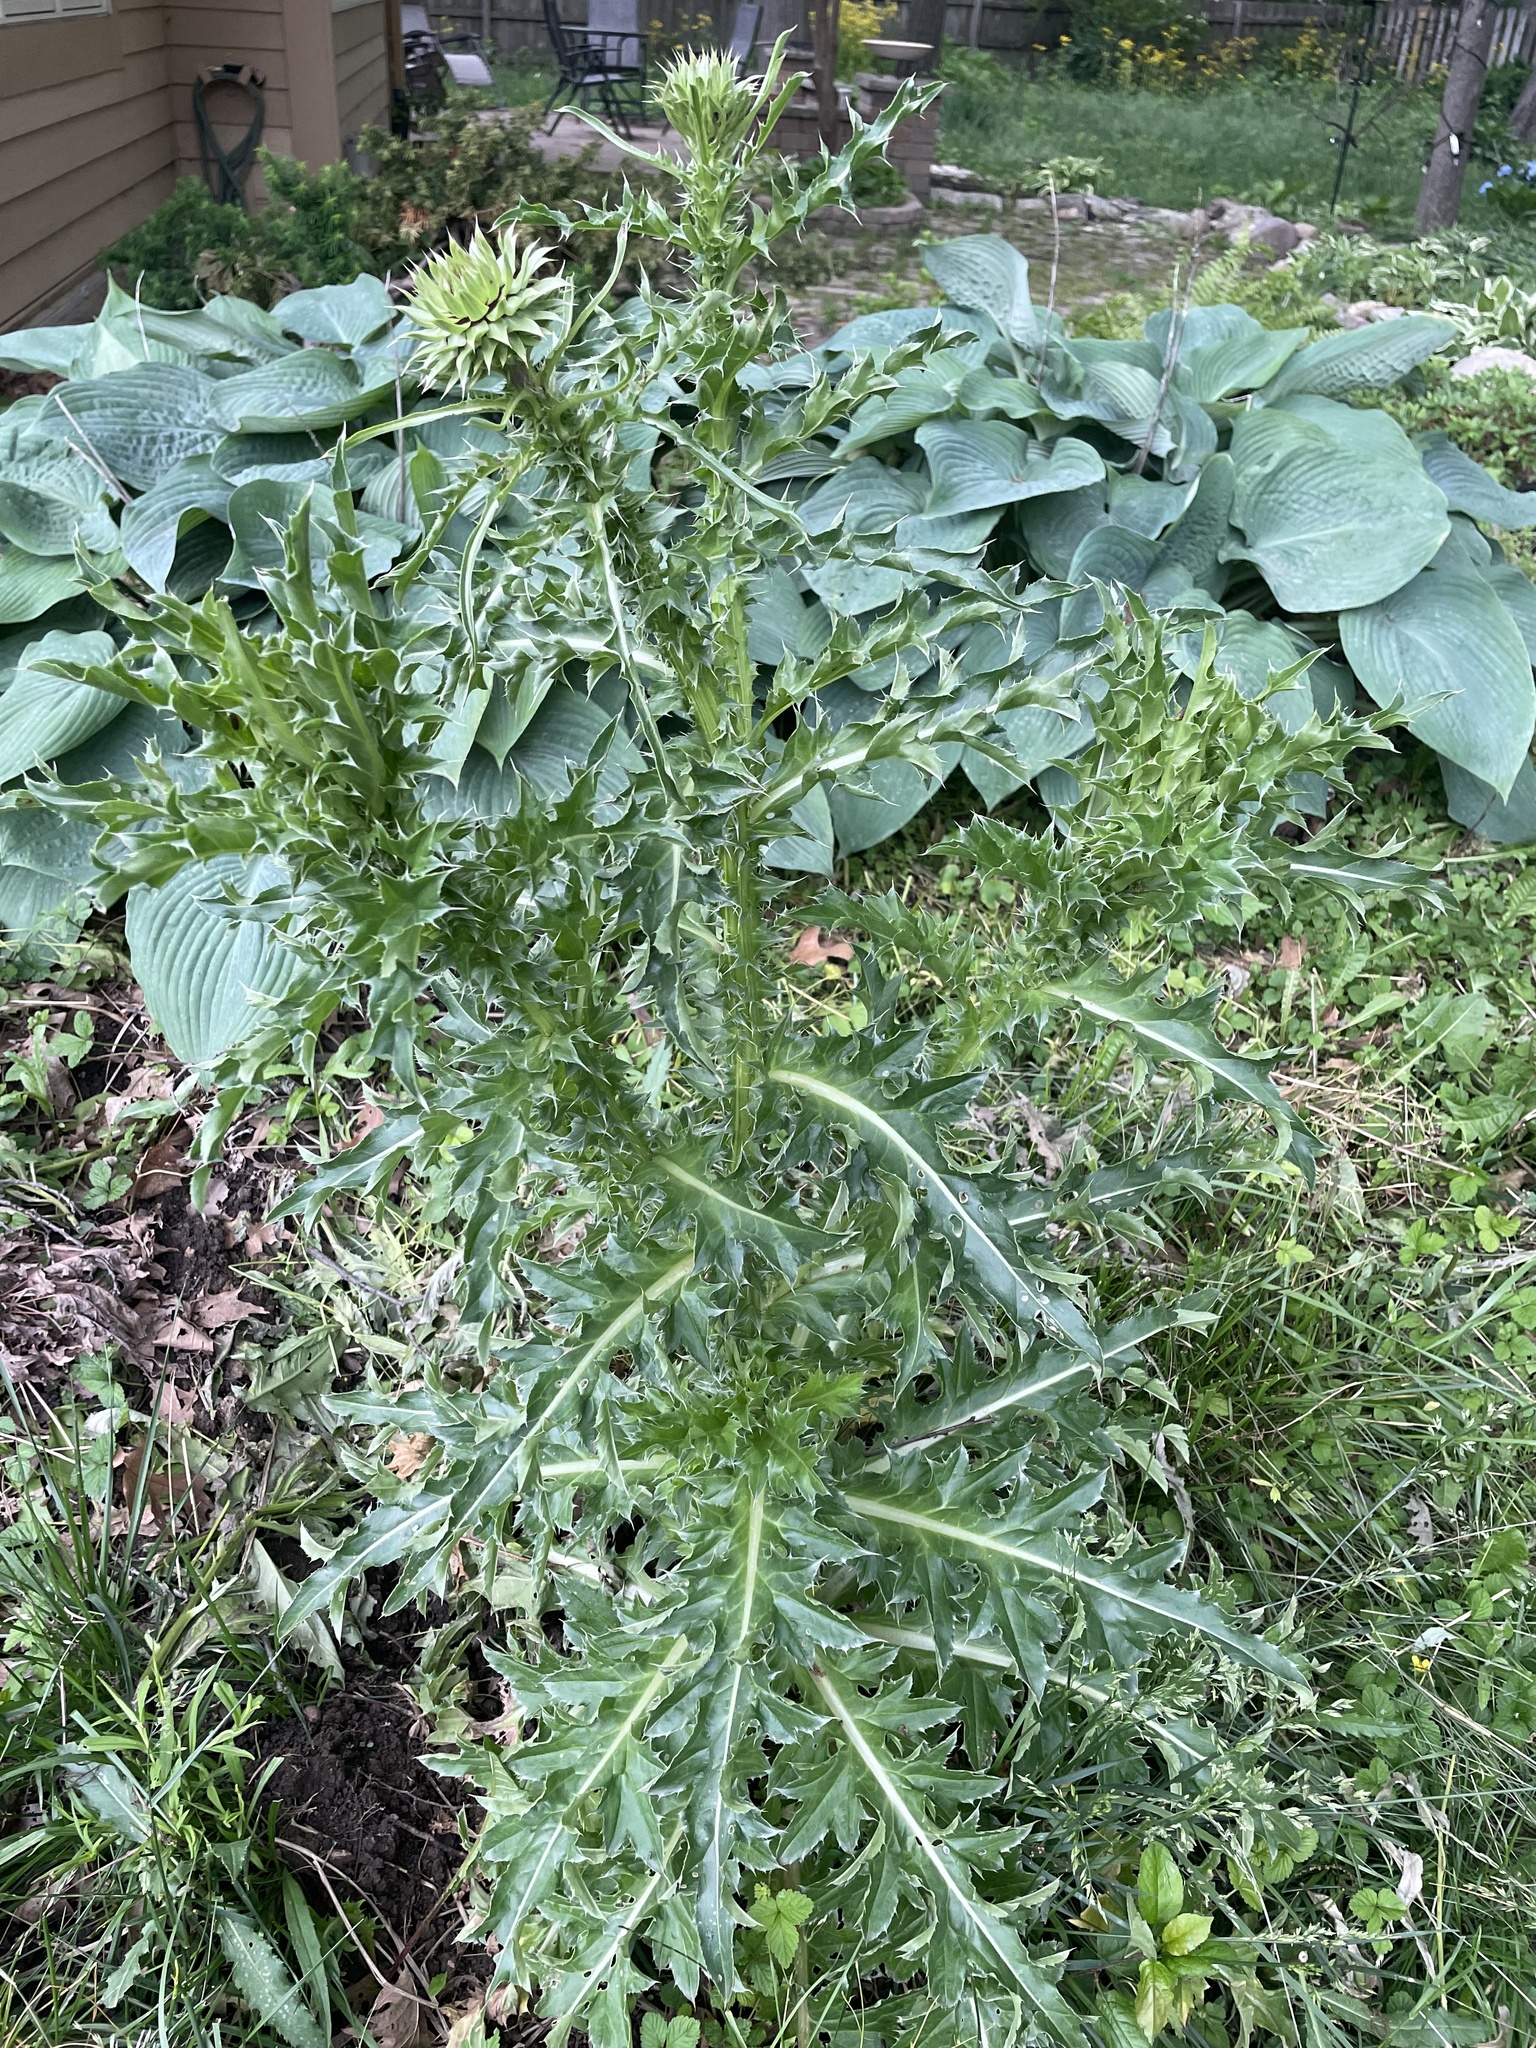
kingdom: Plantae
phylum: Tracheophyta
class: Magnoliopsida
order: Asterales
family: Asteraceae
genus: Carduus
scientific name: Carduus nutans
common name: Musk thistle
